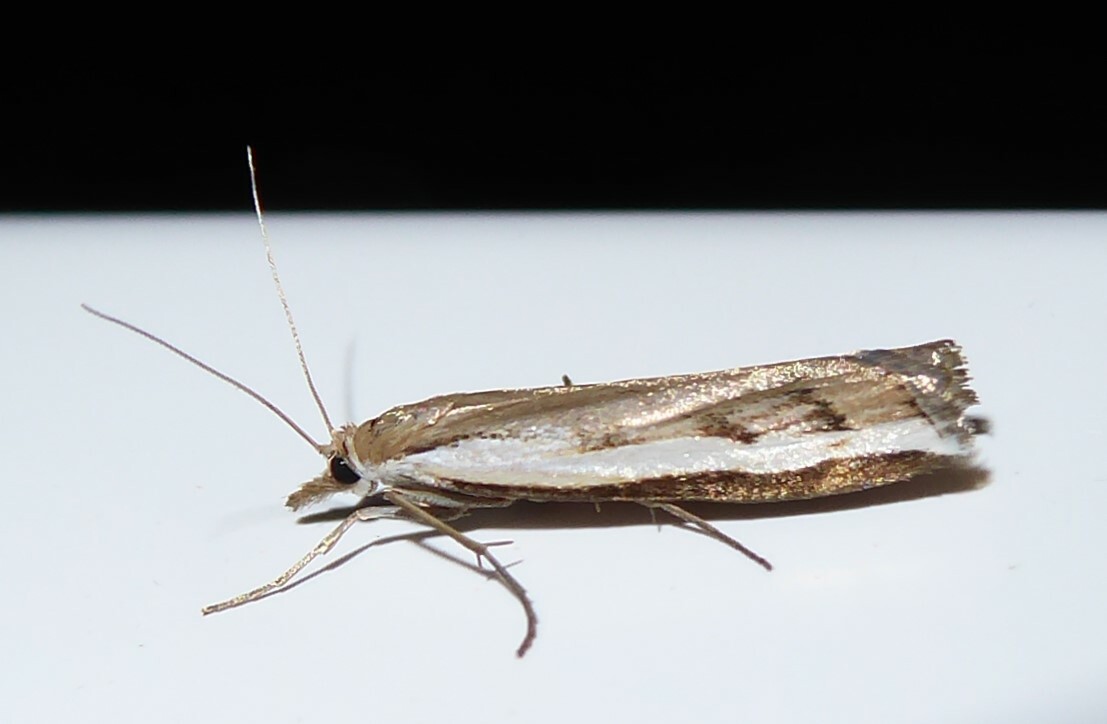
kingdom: Animalia
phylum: Arthropoda
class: Insecta
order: Lepidoptera
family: Crambidae
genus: Orocrambus
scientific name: Orocrambus flexuosellus
